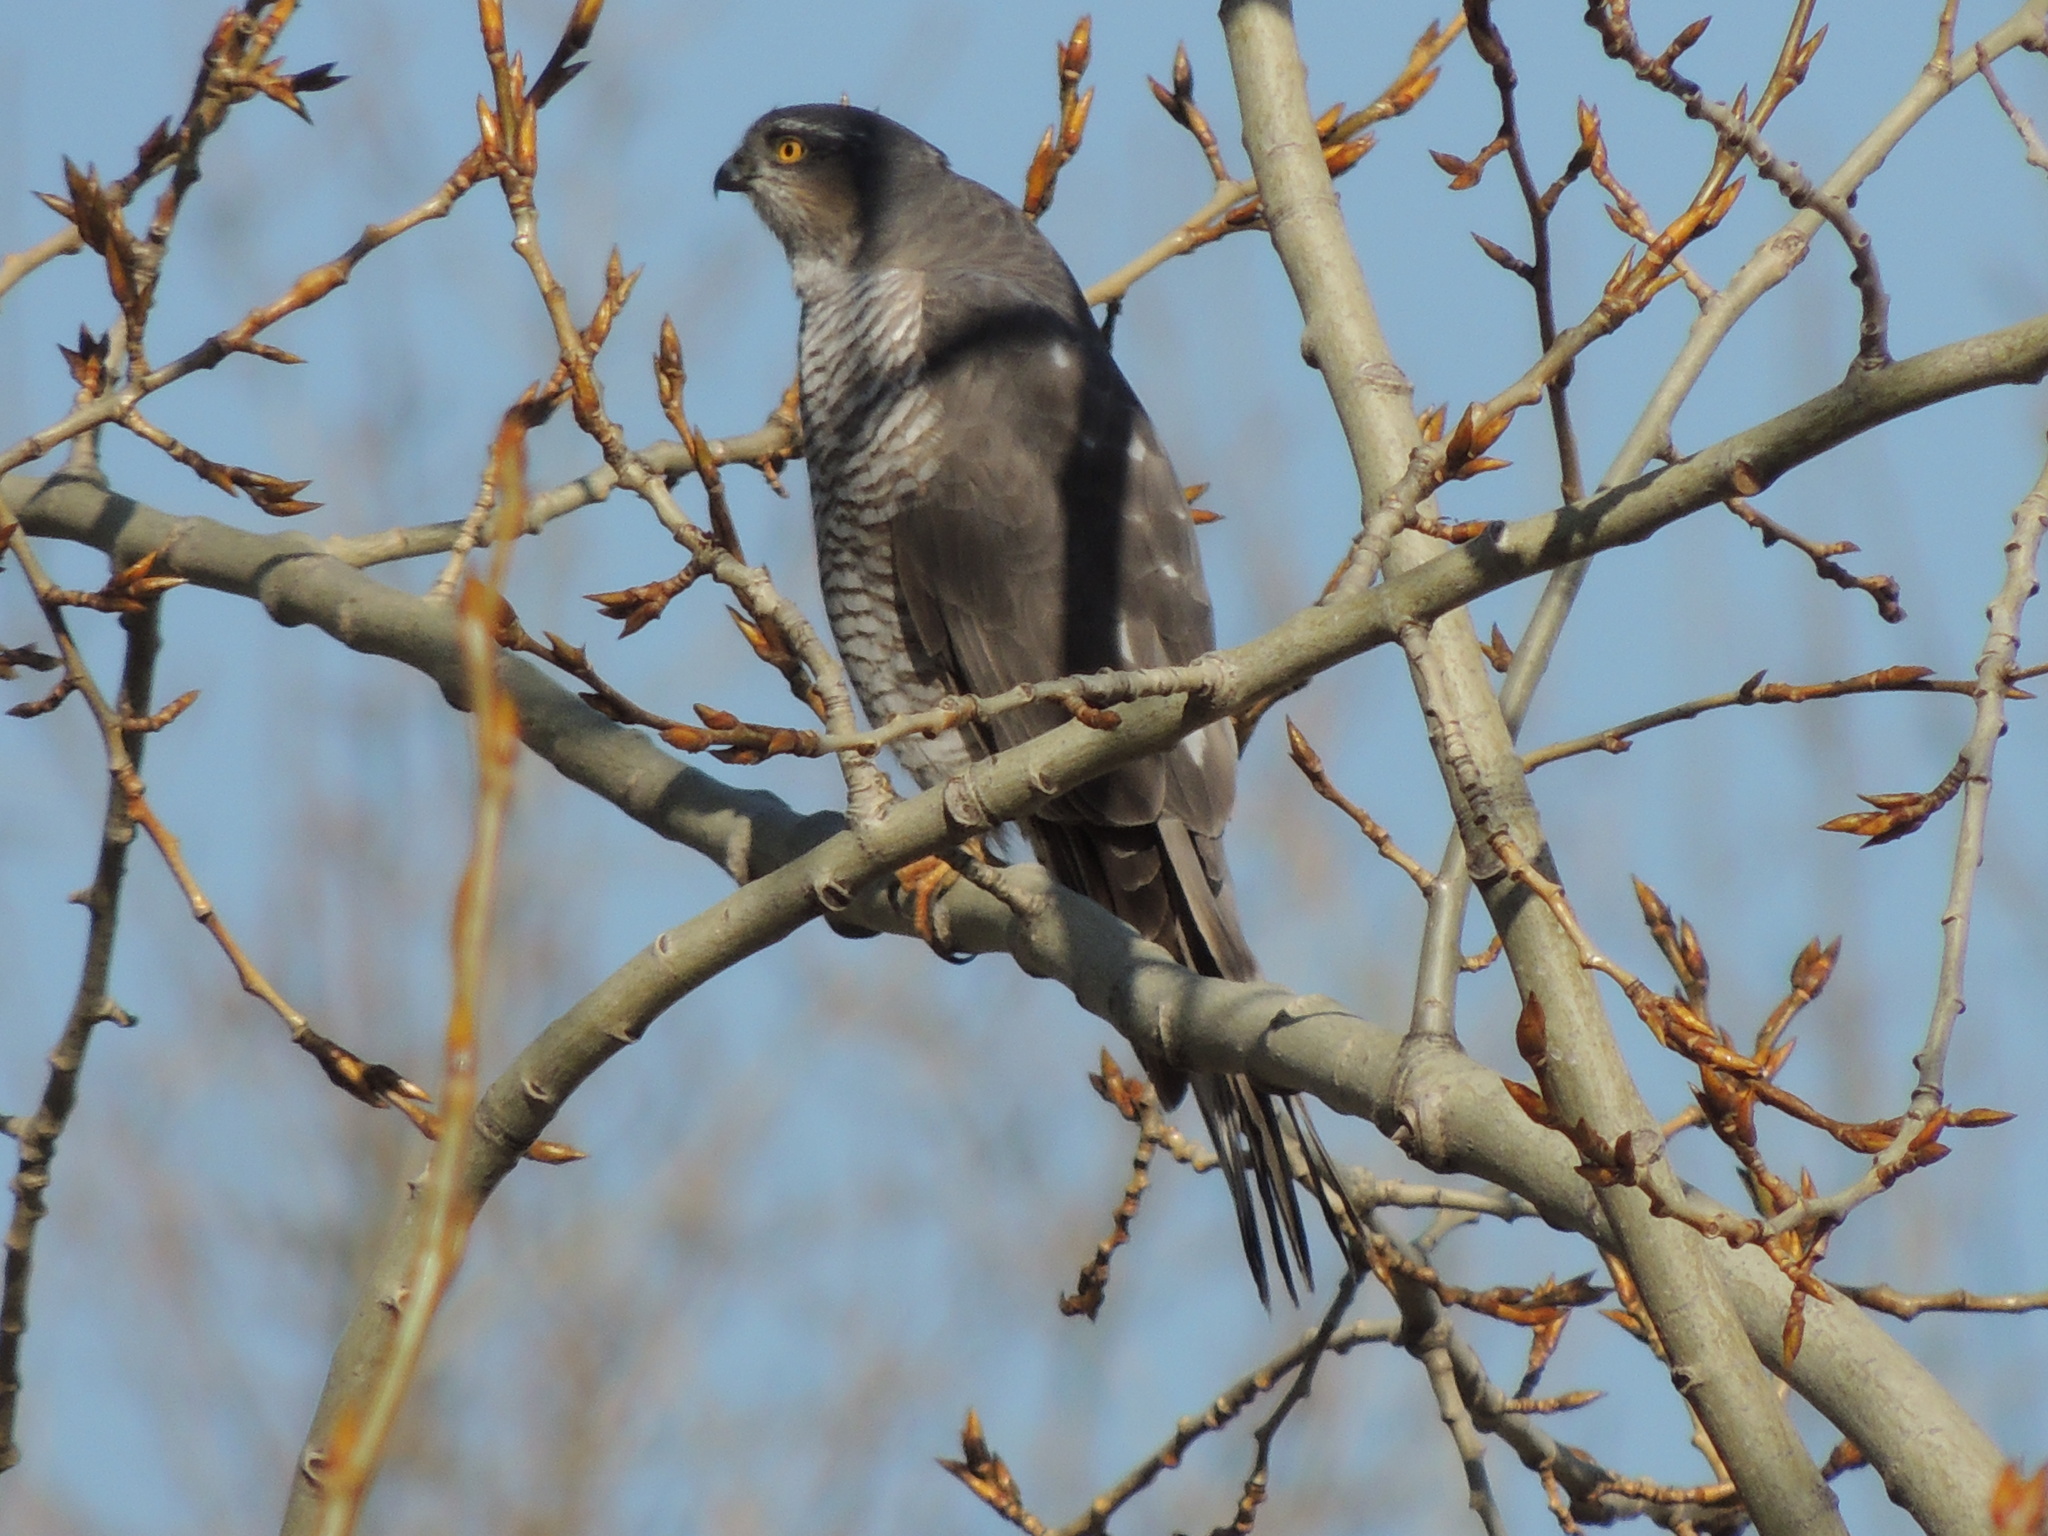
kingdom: Animalia
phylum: Chordata
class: Aves
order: Accipitriformes
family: Accipitridae
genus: Accipiter
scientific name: Accipiter nisus
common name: Eurasian sparrowhawk
